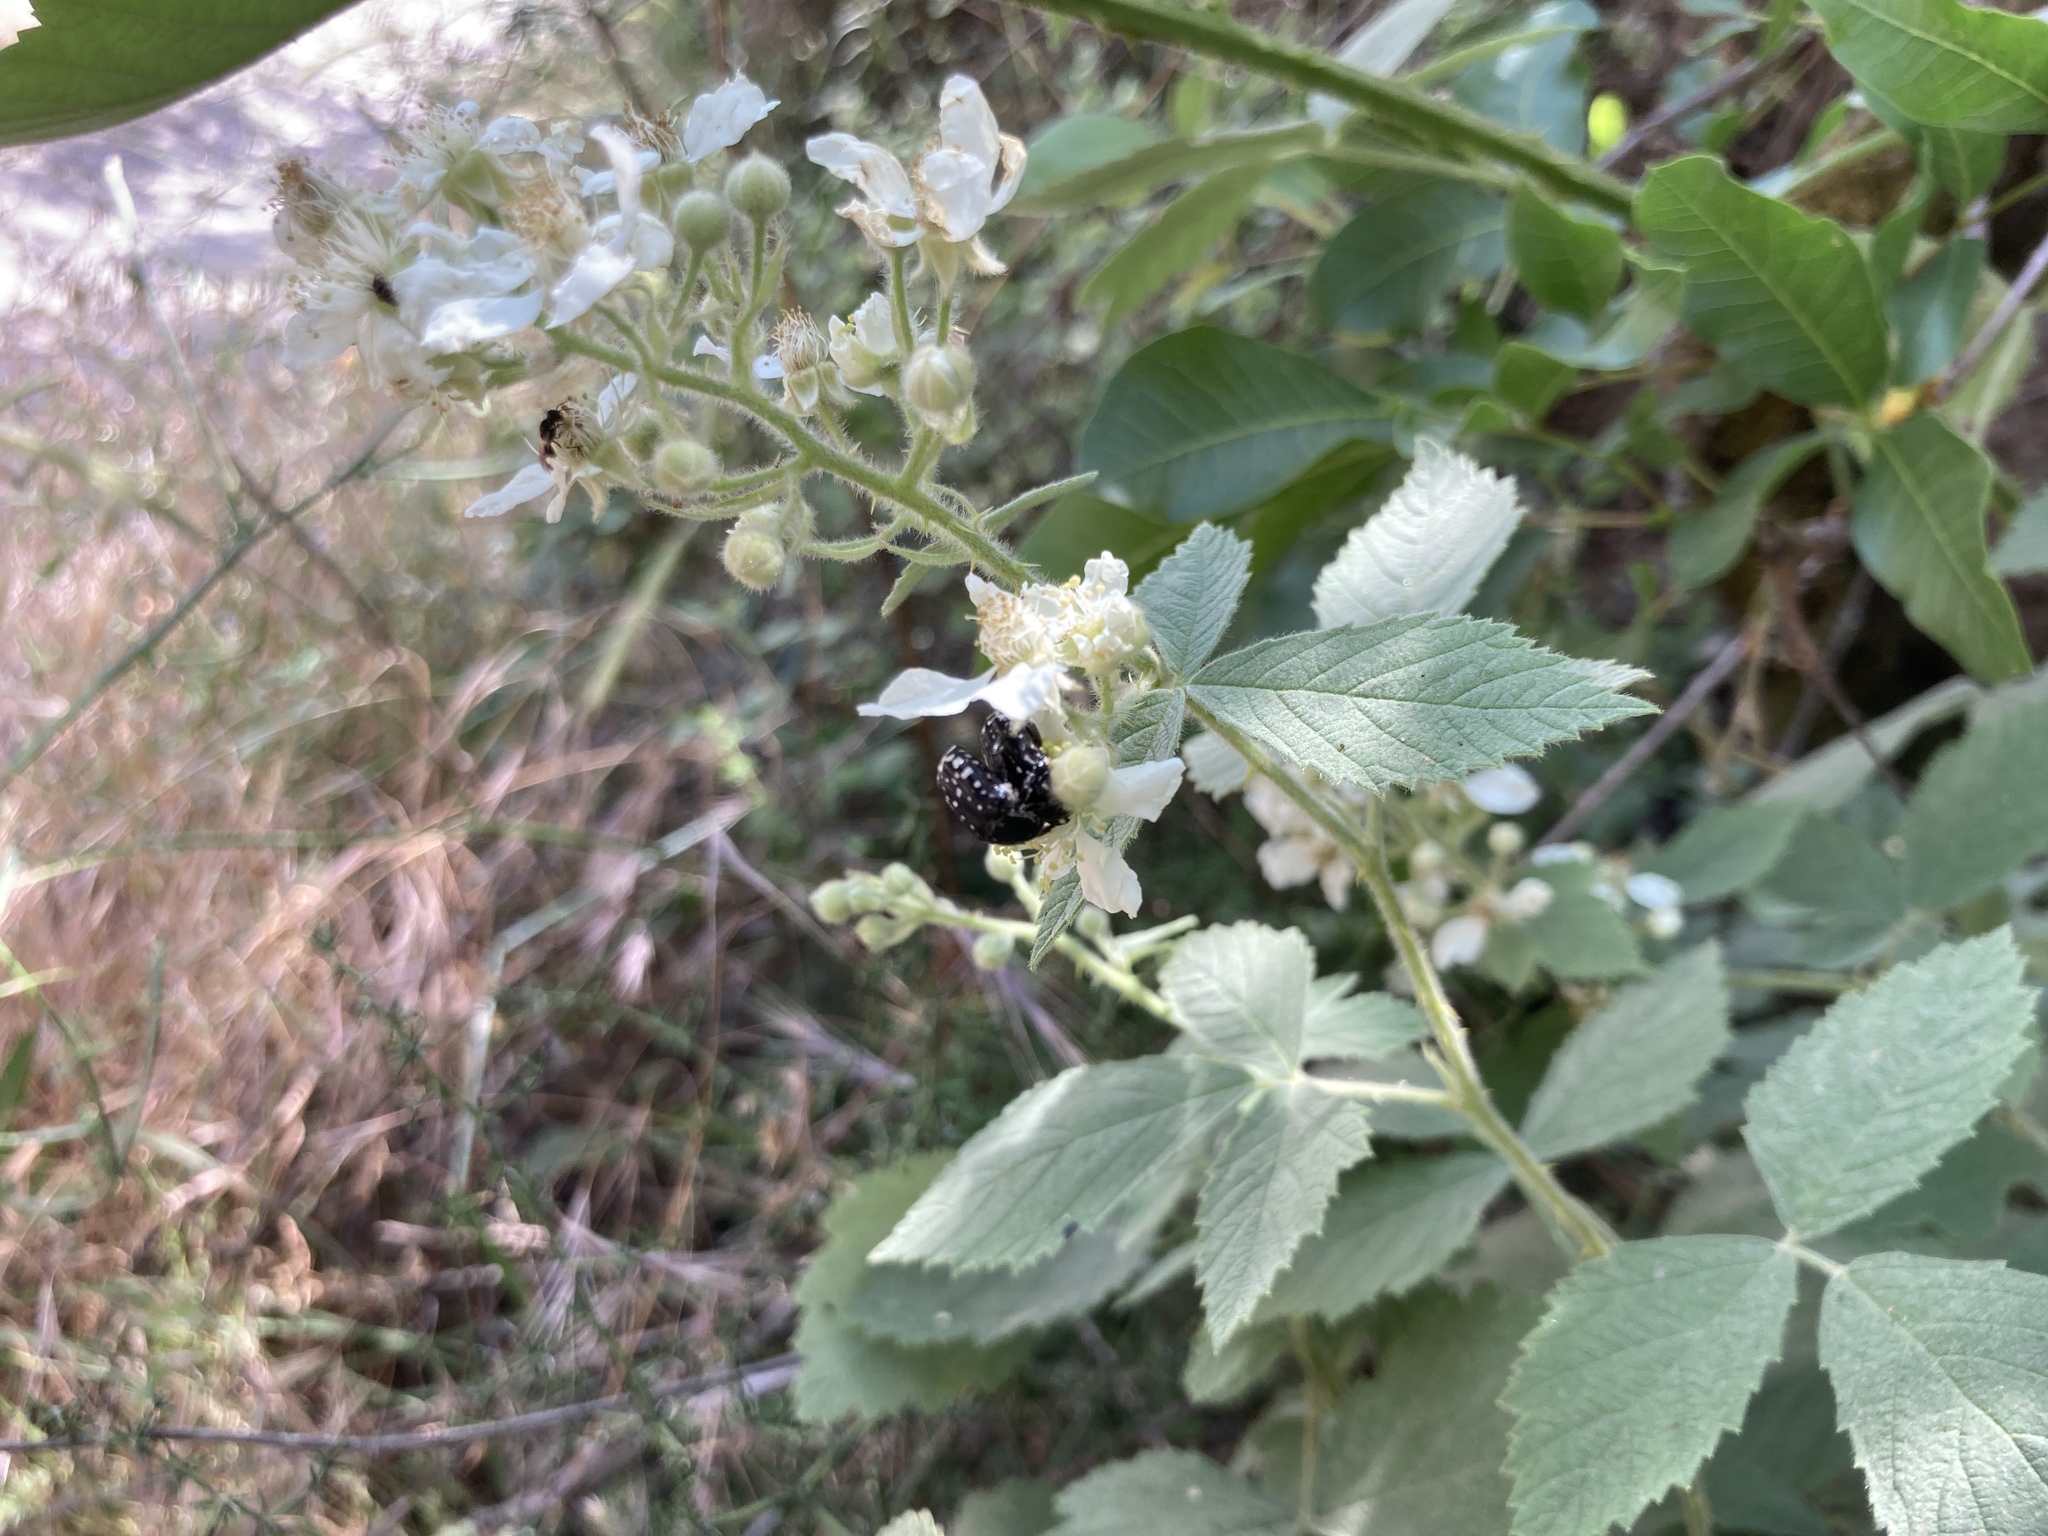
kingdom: Animalia
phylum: Arthropoda
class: Insecta
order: Coleoptera
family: Scarabaeidae
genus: Oxythyrea
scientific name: Oxythyrea cinctella
